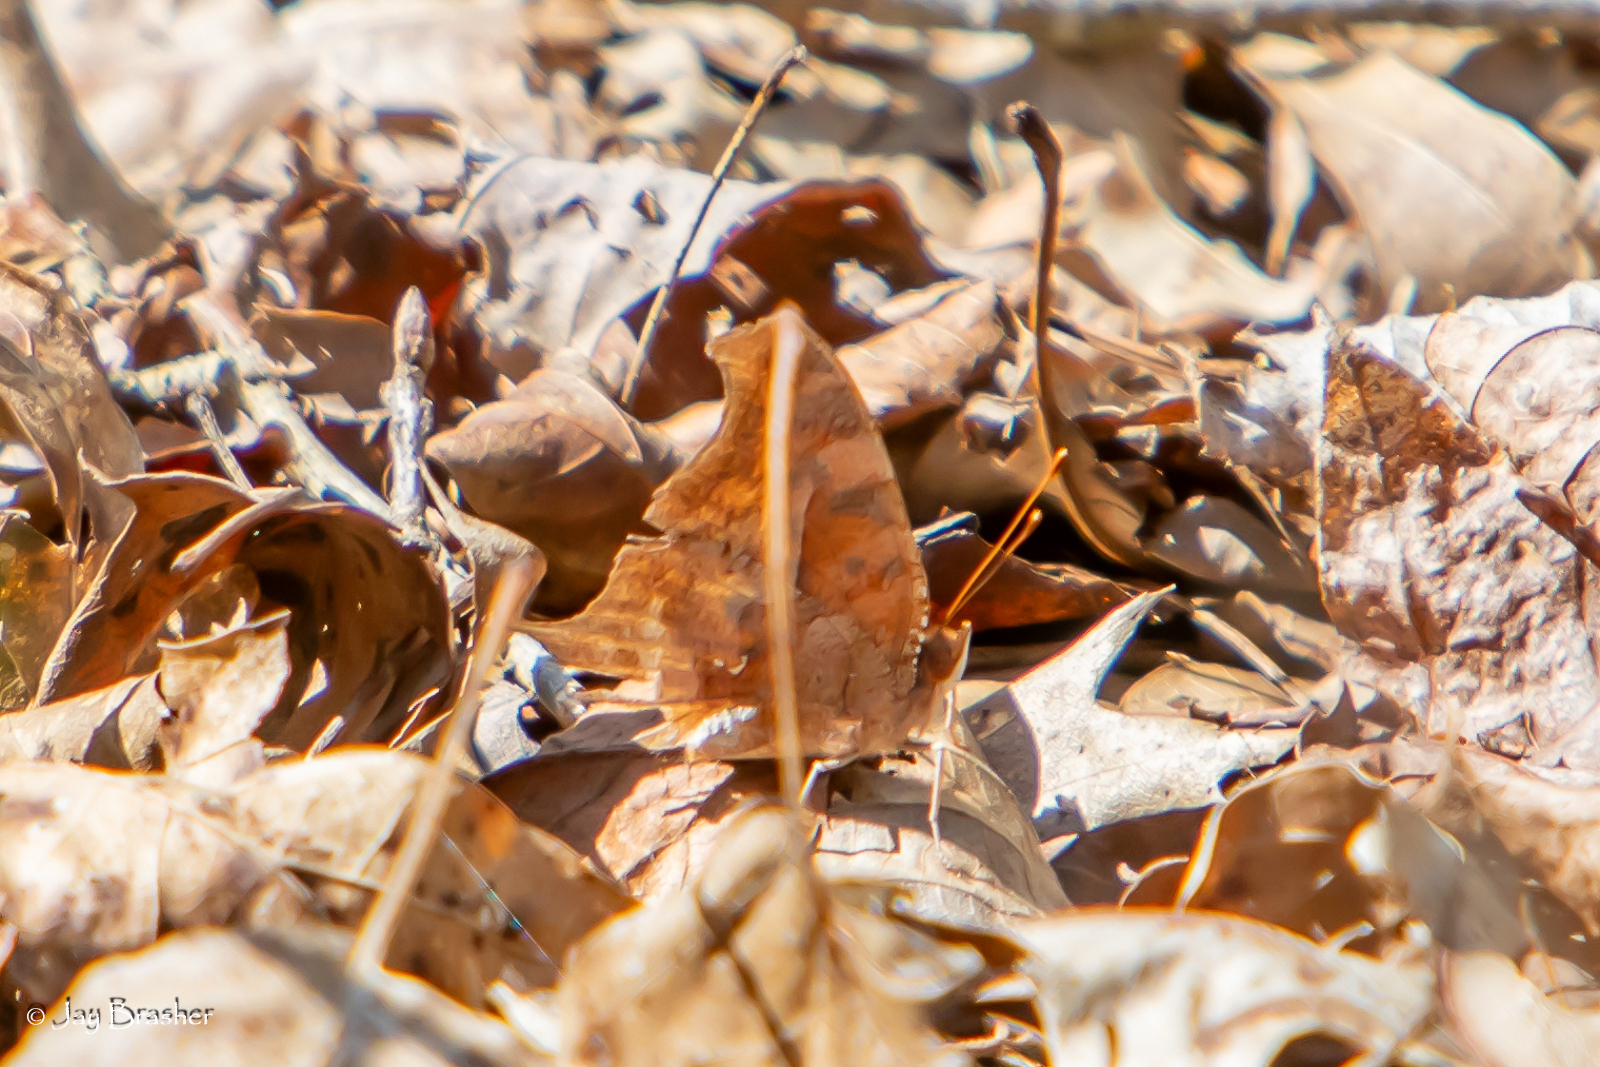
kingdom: Animalia
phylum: Arthropoda
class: Insecta
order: Lepidoptera
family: Nymphalidae
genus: Polygonia
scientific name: Polygonia interrogationis
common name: Question mark
